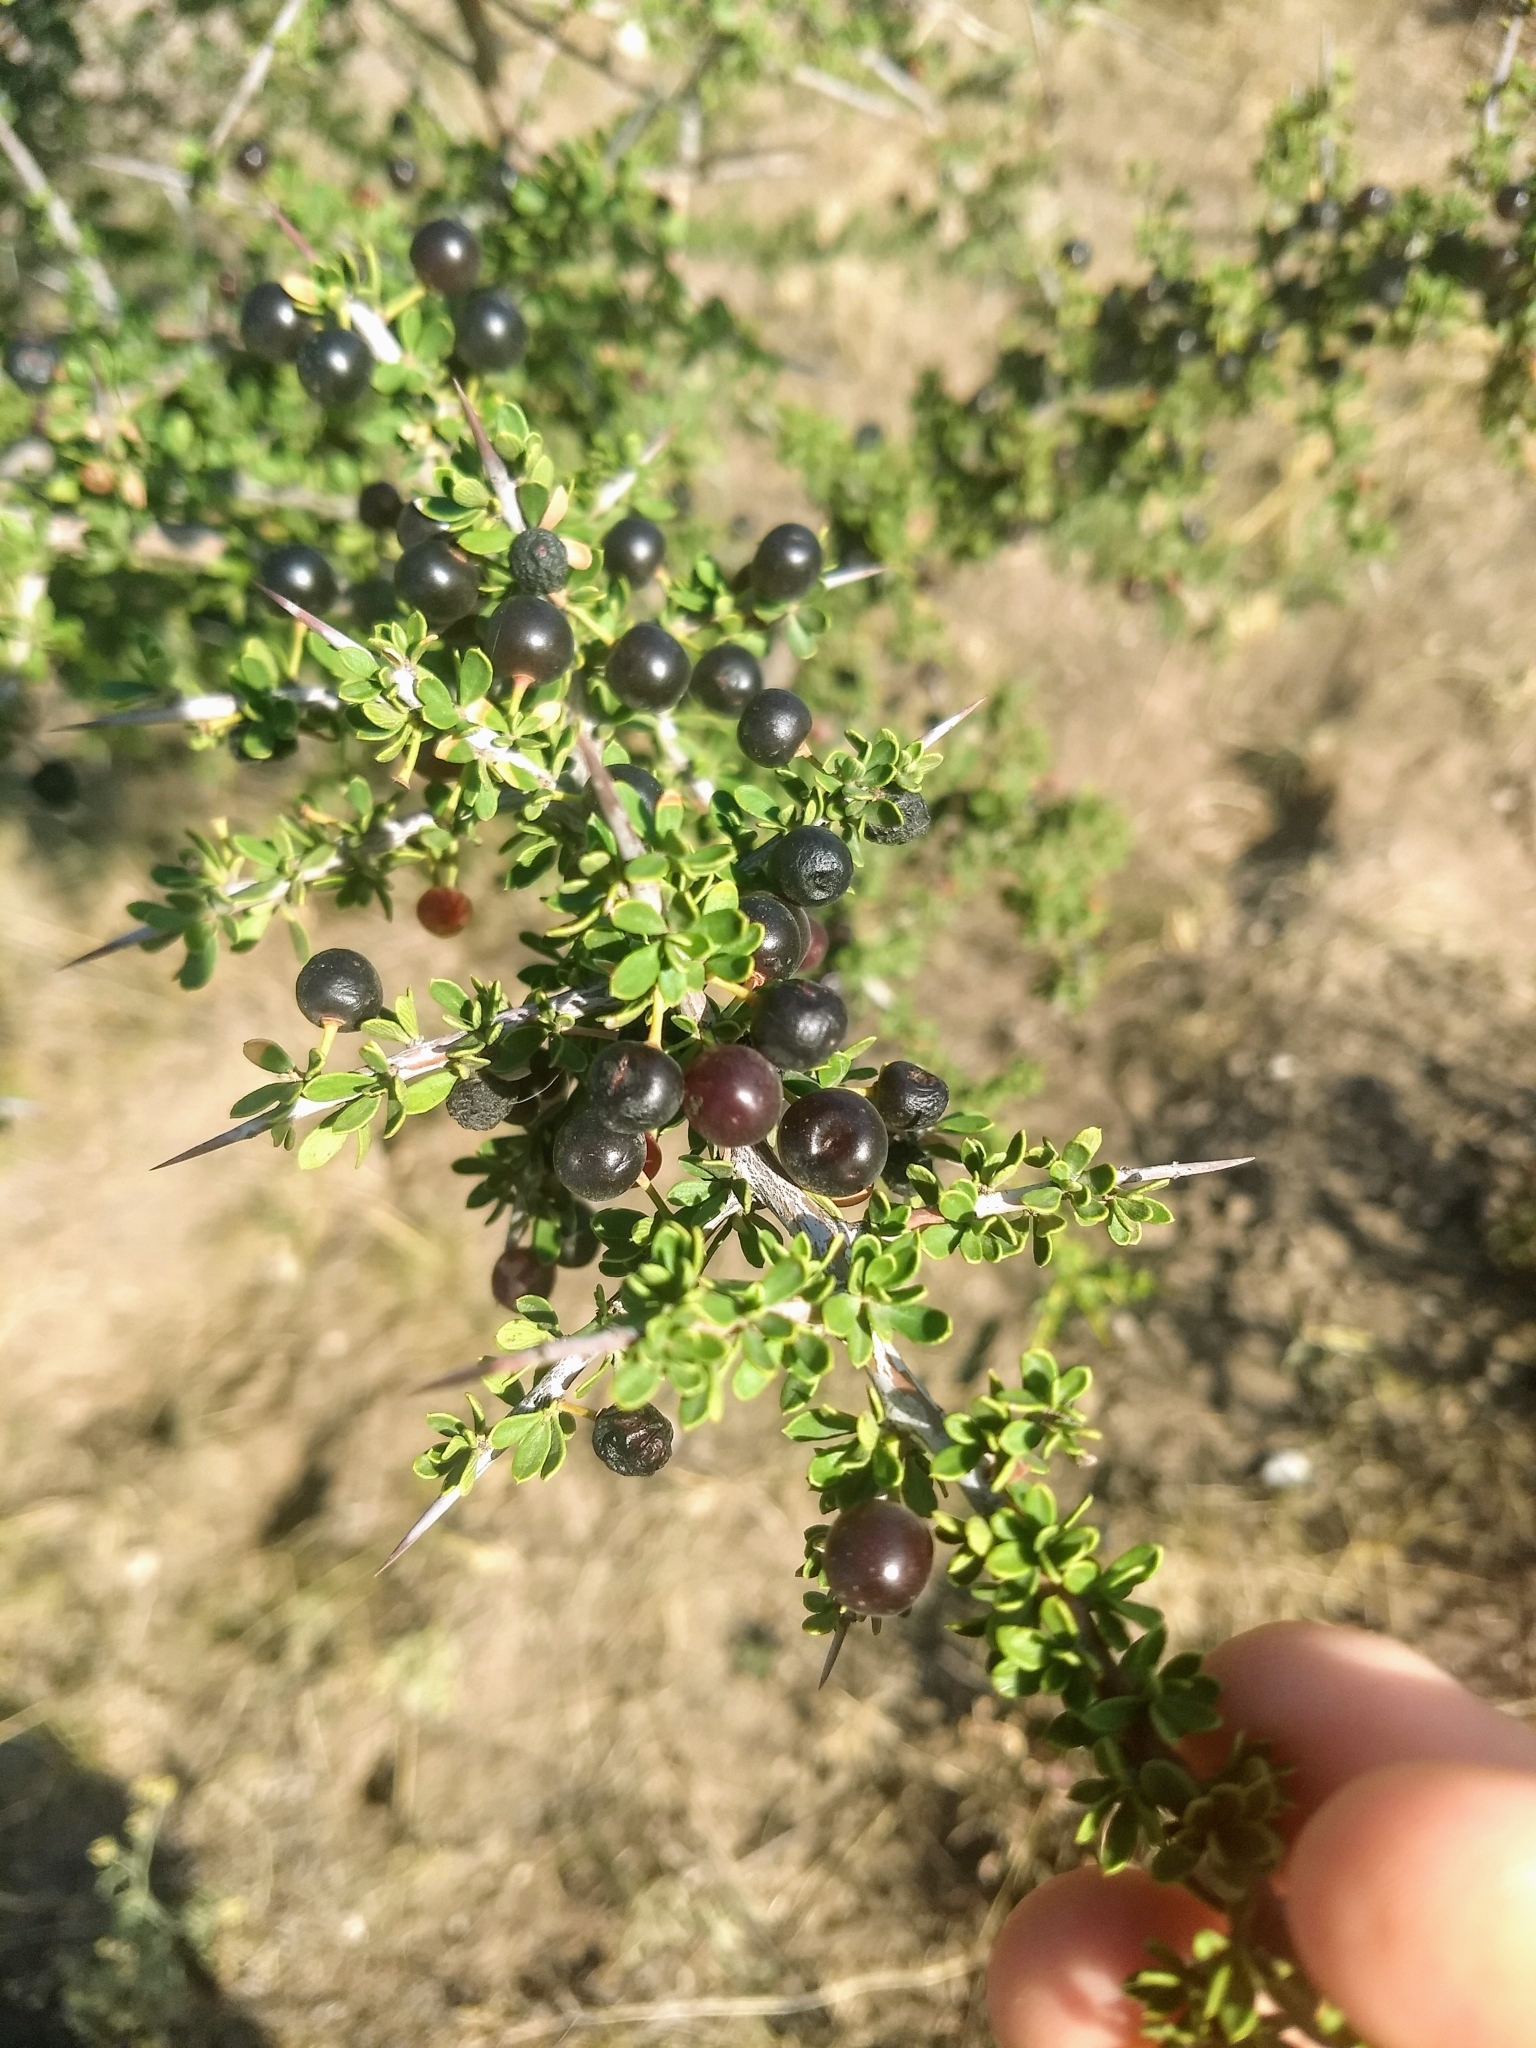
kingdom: Plantae
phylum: Tracheophyta
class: Magnoliopsida
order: Rosales
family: Rhamnaceae
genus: Condalia
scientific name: Condalia microphylla
